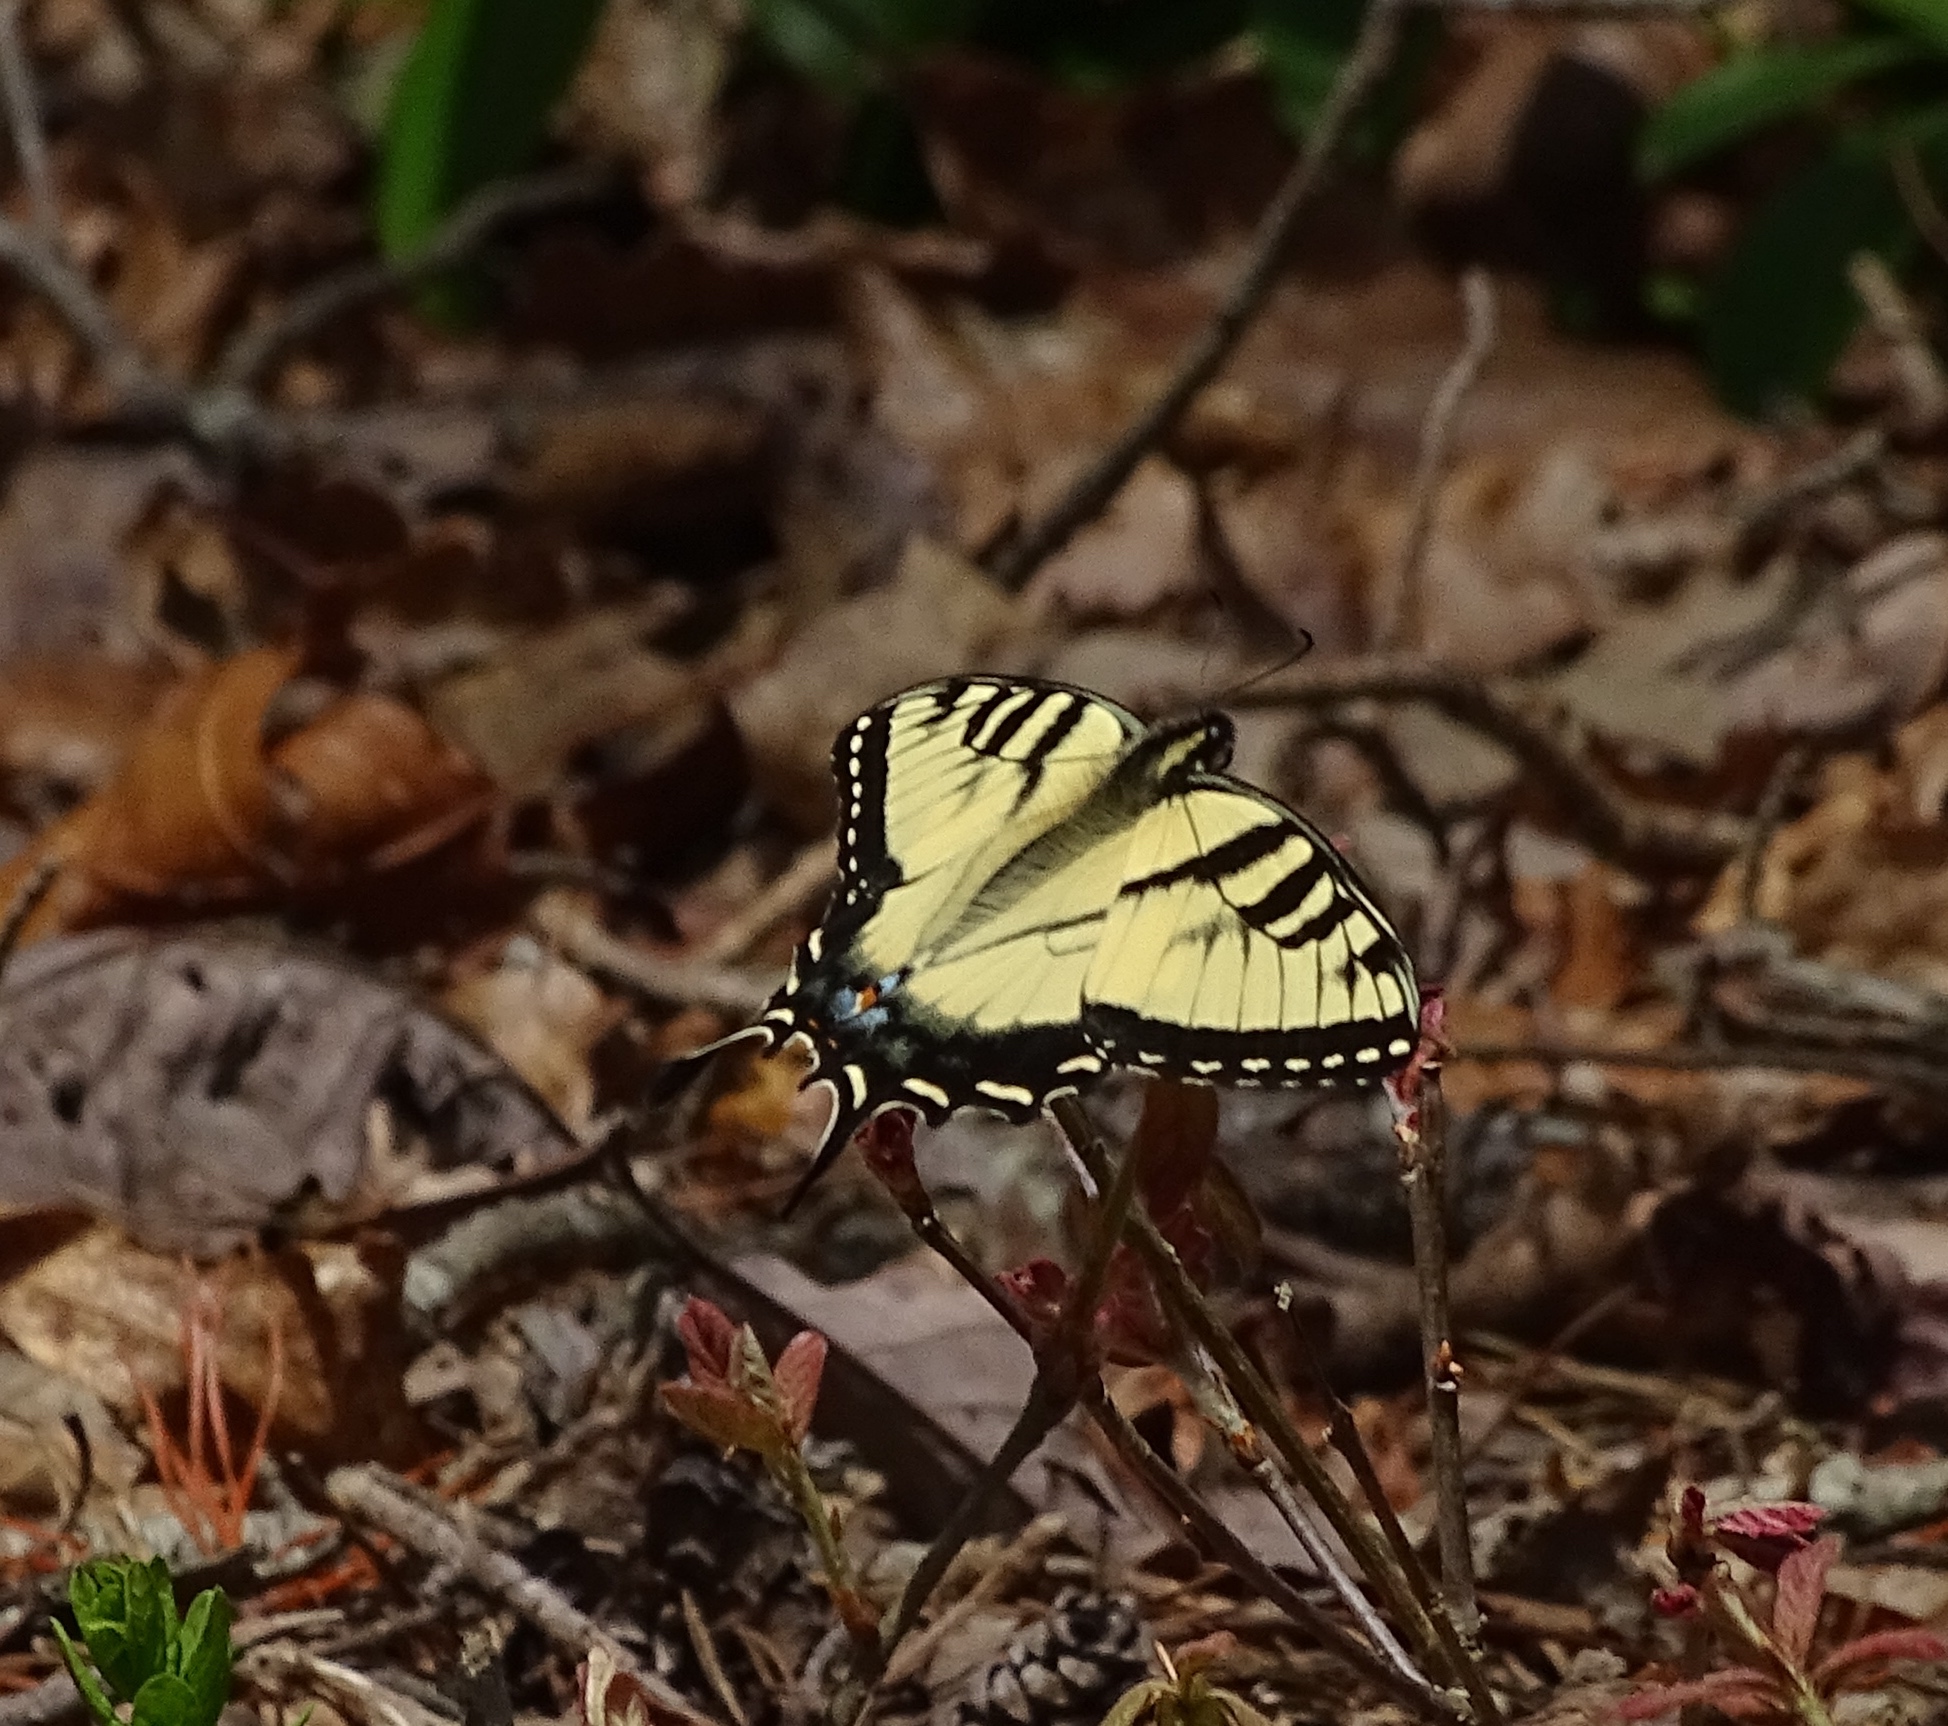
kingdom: Animalia
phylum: Arthropoda
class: Insecta
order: Lepidoptera
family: Papilionidae
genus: Papilio
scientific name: Papilio glaucus
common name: Tiger swallowtail
